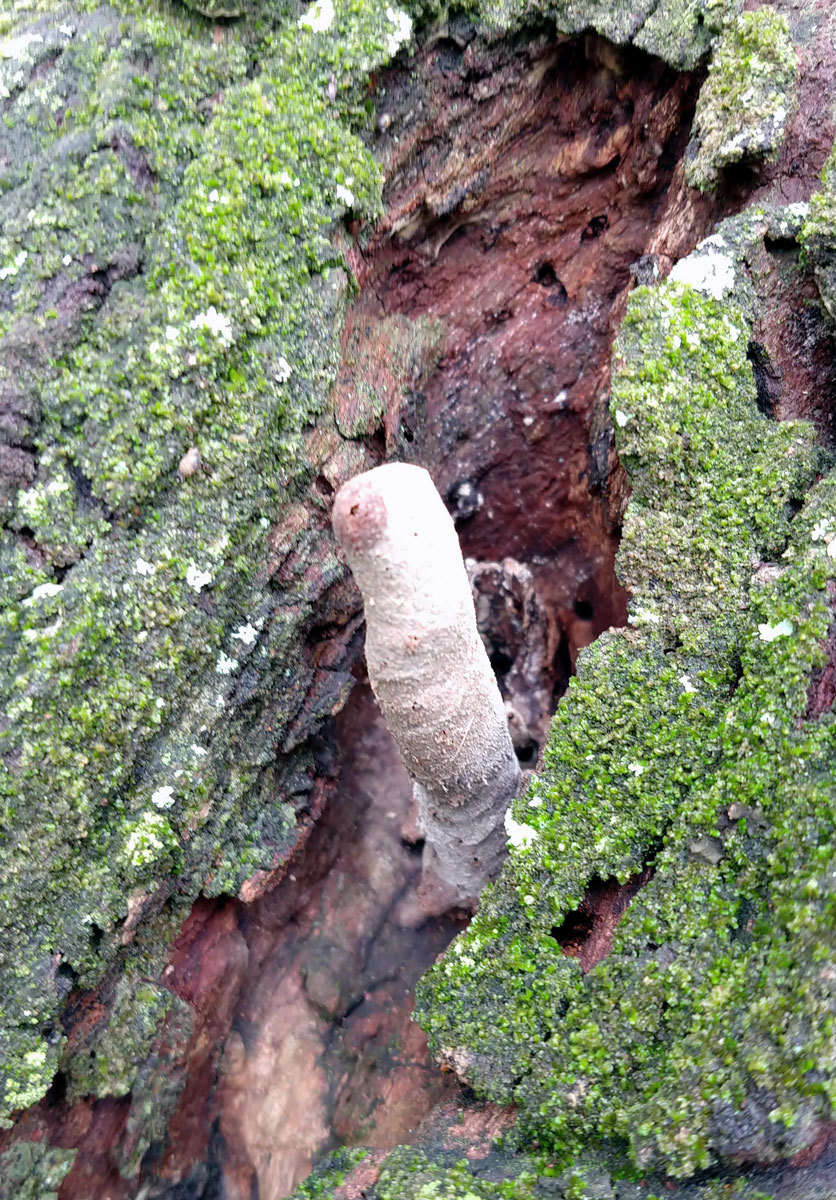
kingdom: Animalia
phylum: Arthropoda
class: Insecta
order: Hymenoptera
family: Apidae
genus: Plebeia
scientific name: Plebeia droryana
